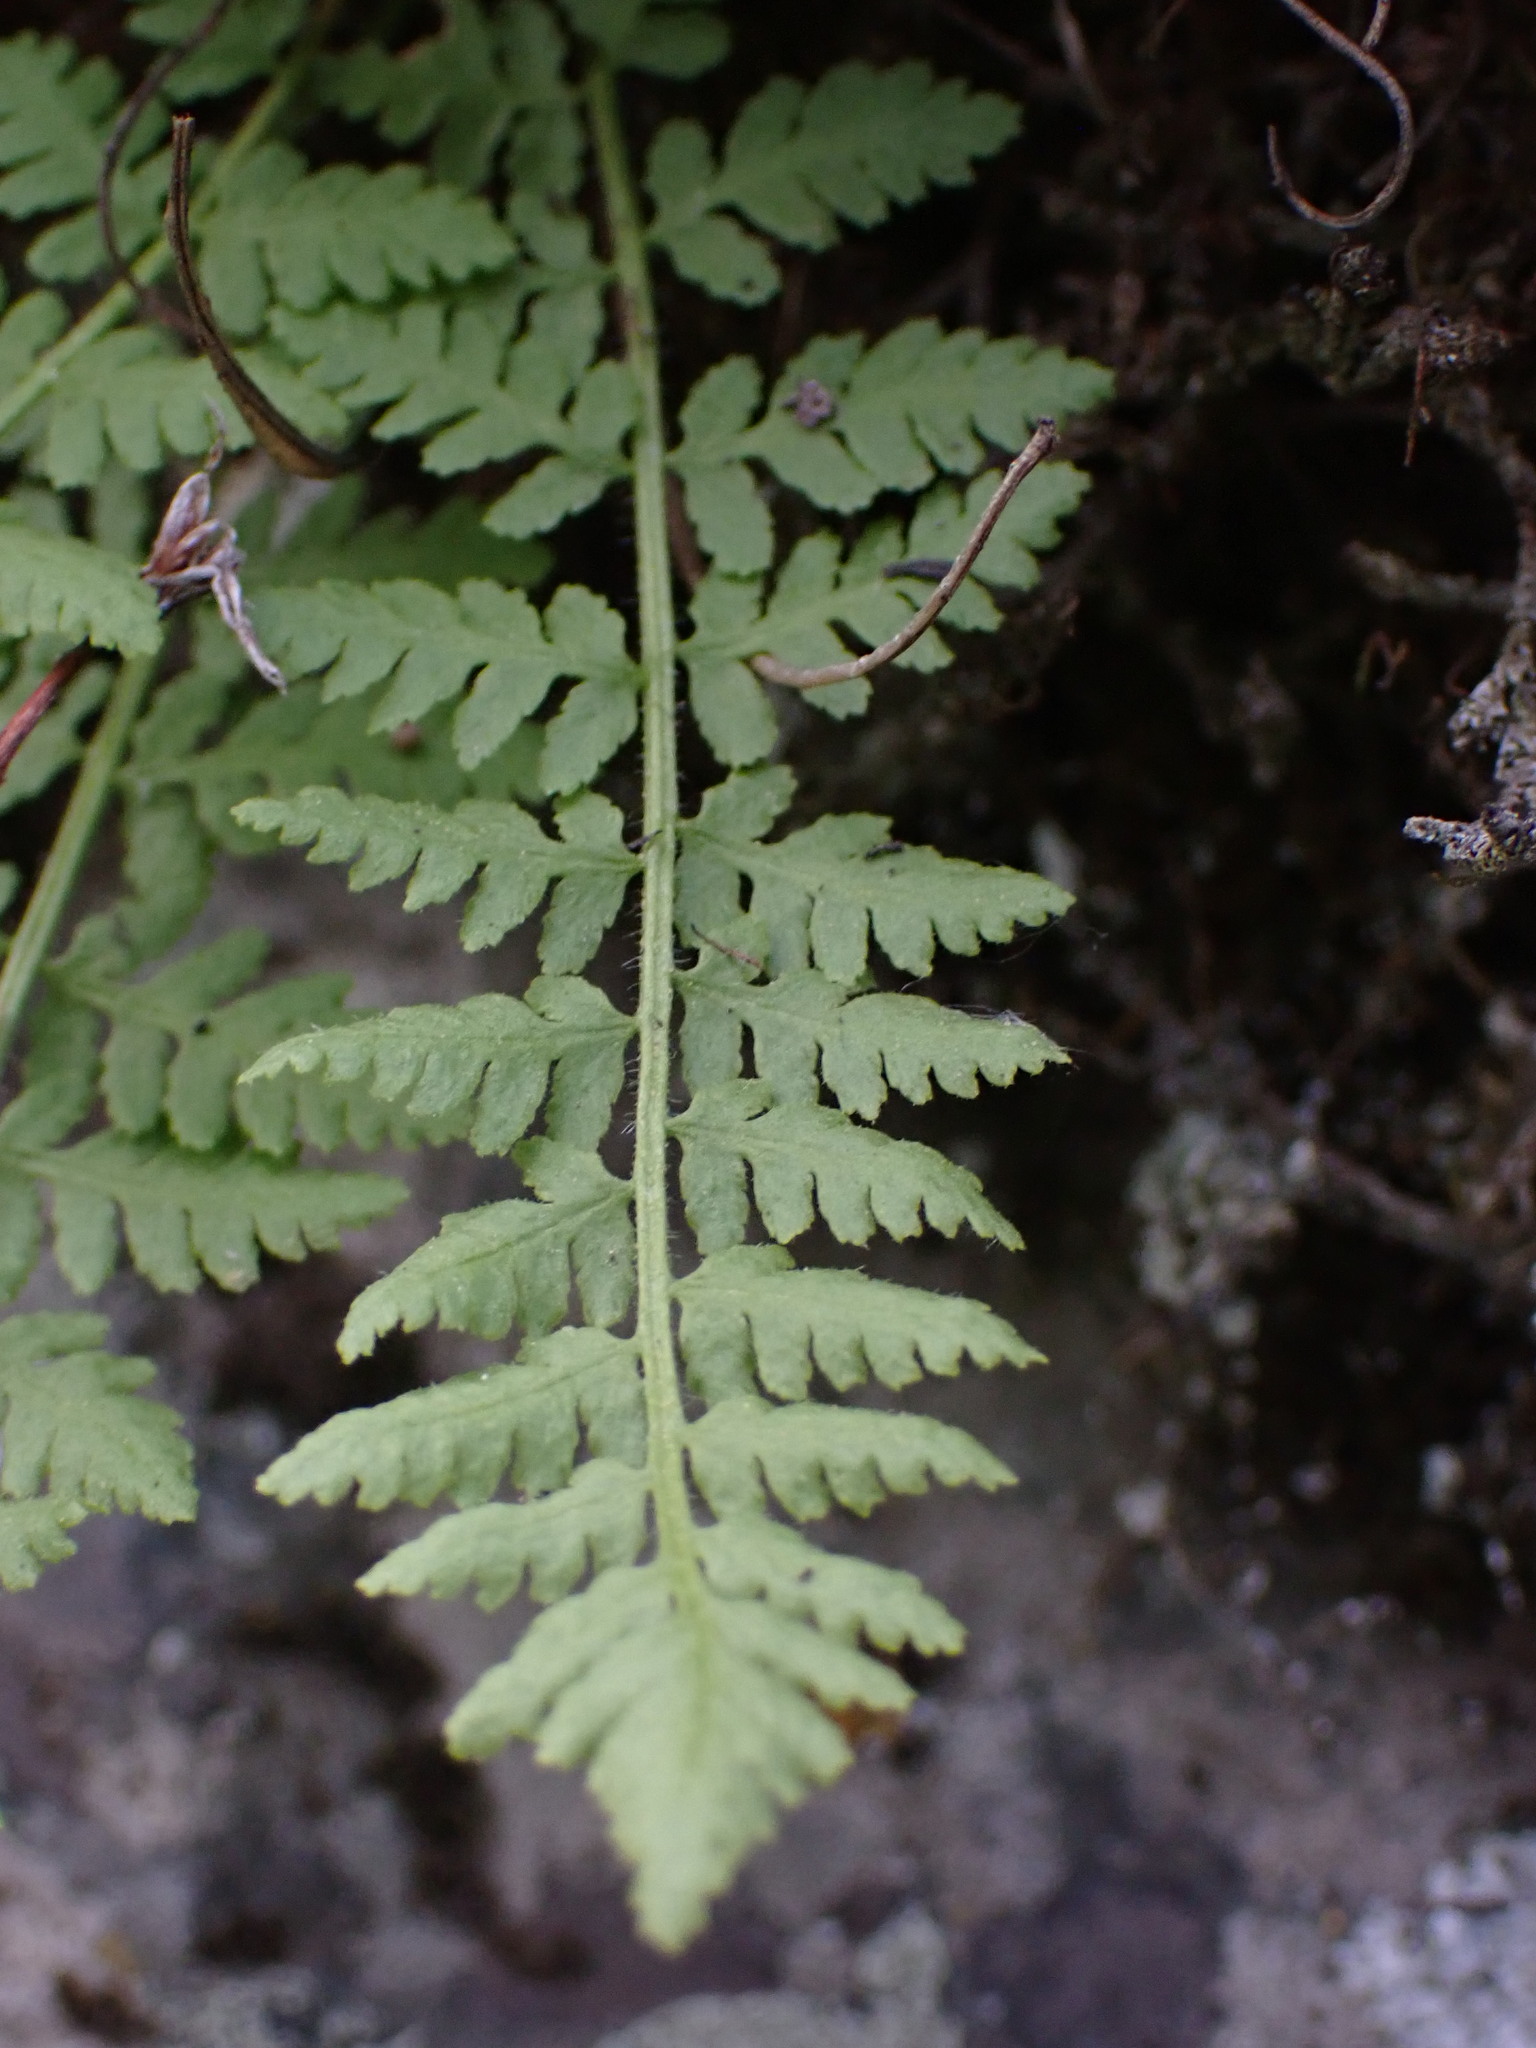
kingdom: Plantae
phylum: Tracheophyta
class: Polypodiopsida
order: Polypodiales
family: Woodsiaceae
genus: Physematium
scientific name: Physematium scopulinum
